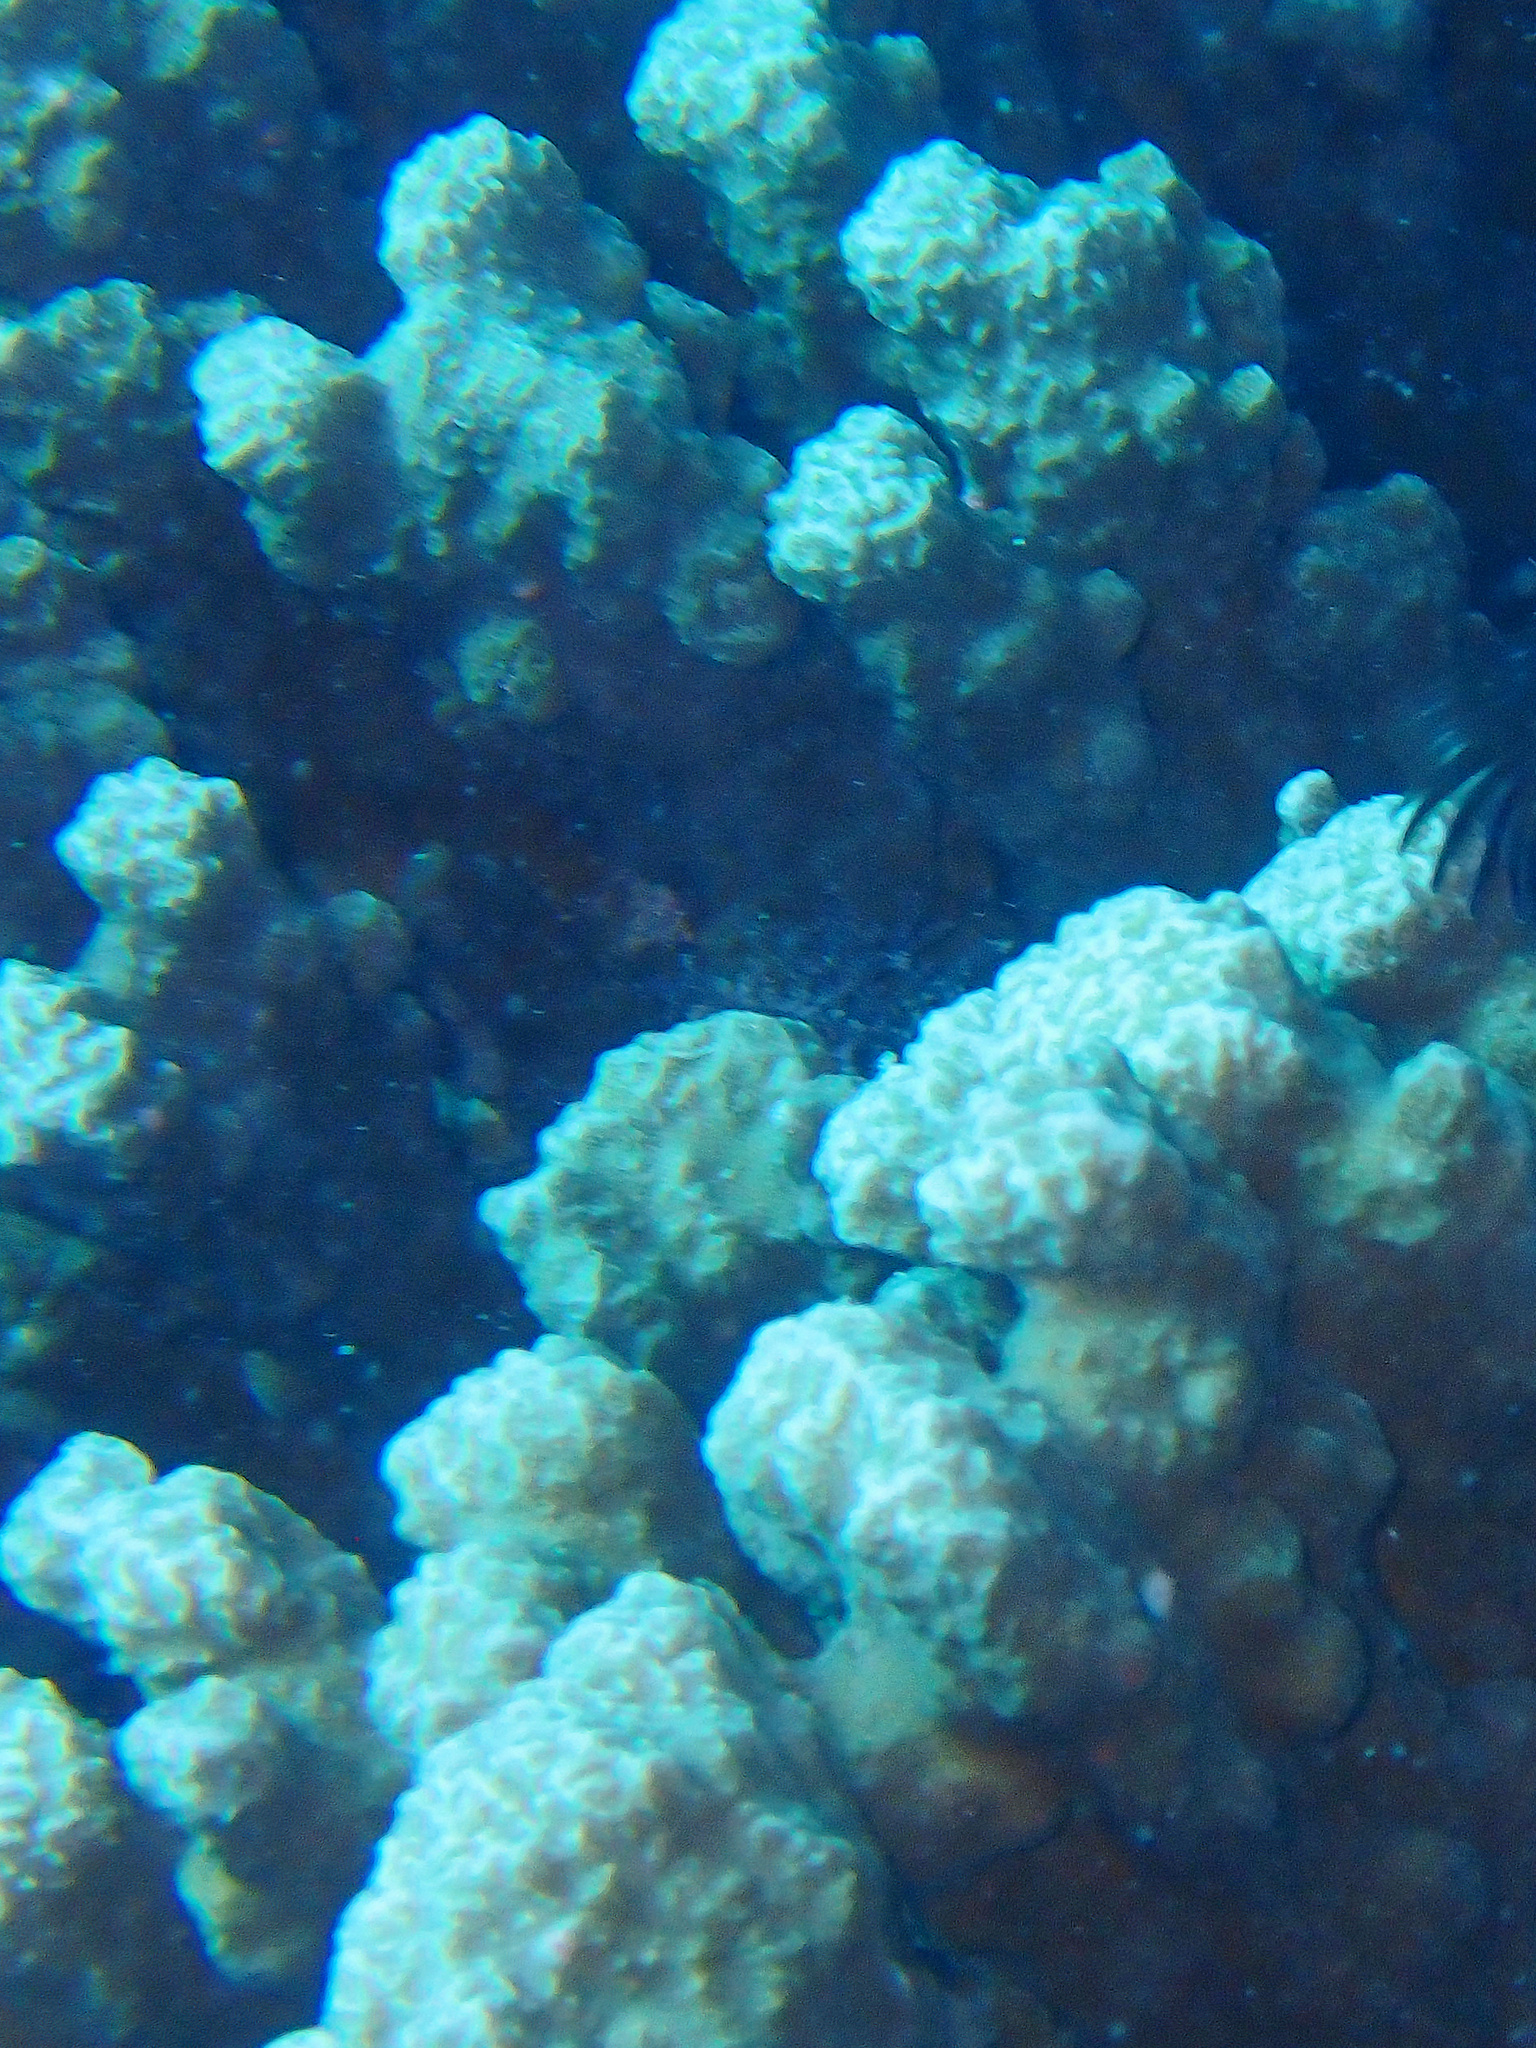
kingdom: Animalia
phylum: Cnidaria
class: Anthozoa
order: Scleractinia
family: Poritidae
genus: Porites
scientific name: Porites rus
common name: Hump coral
